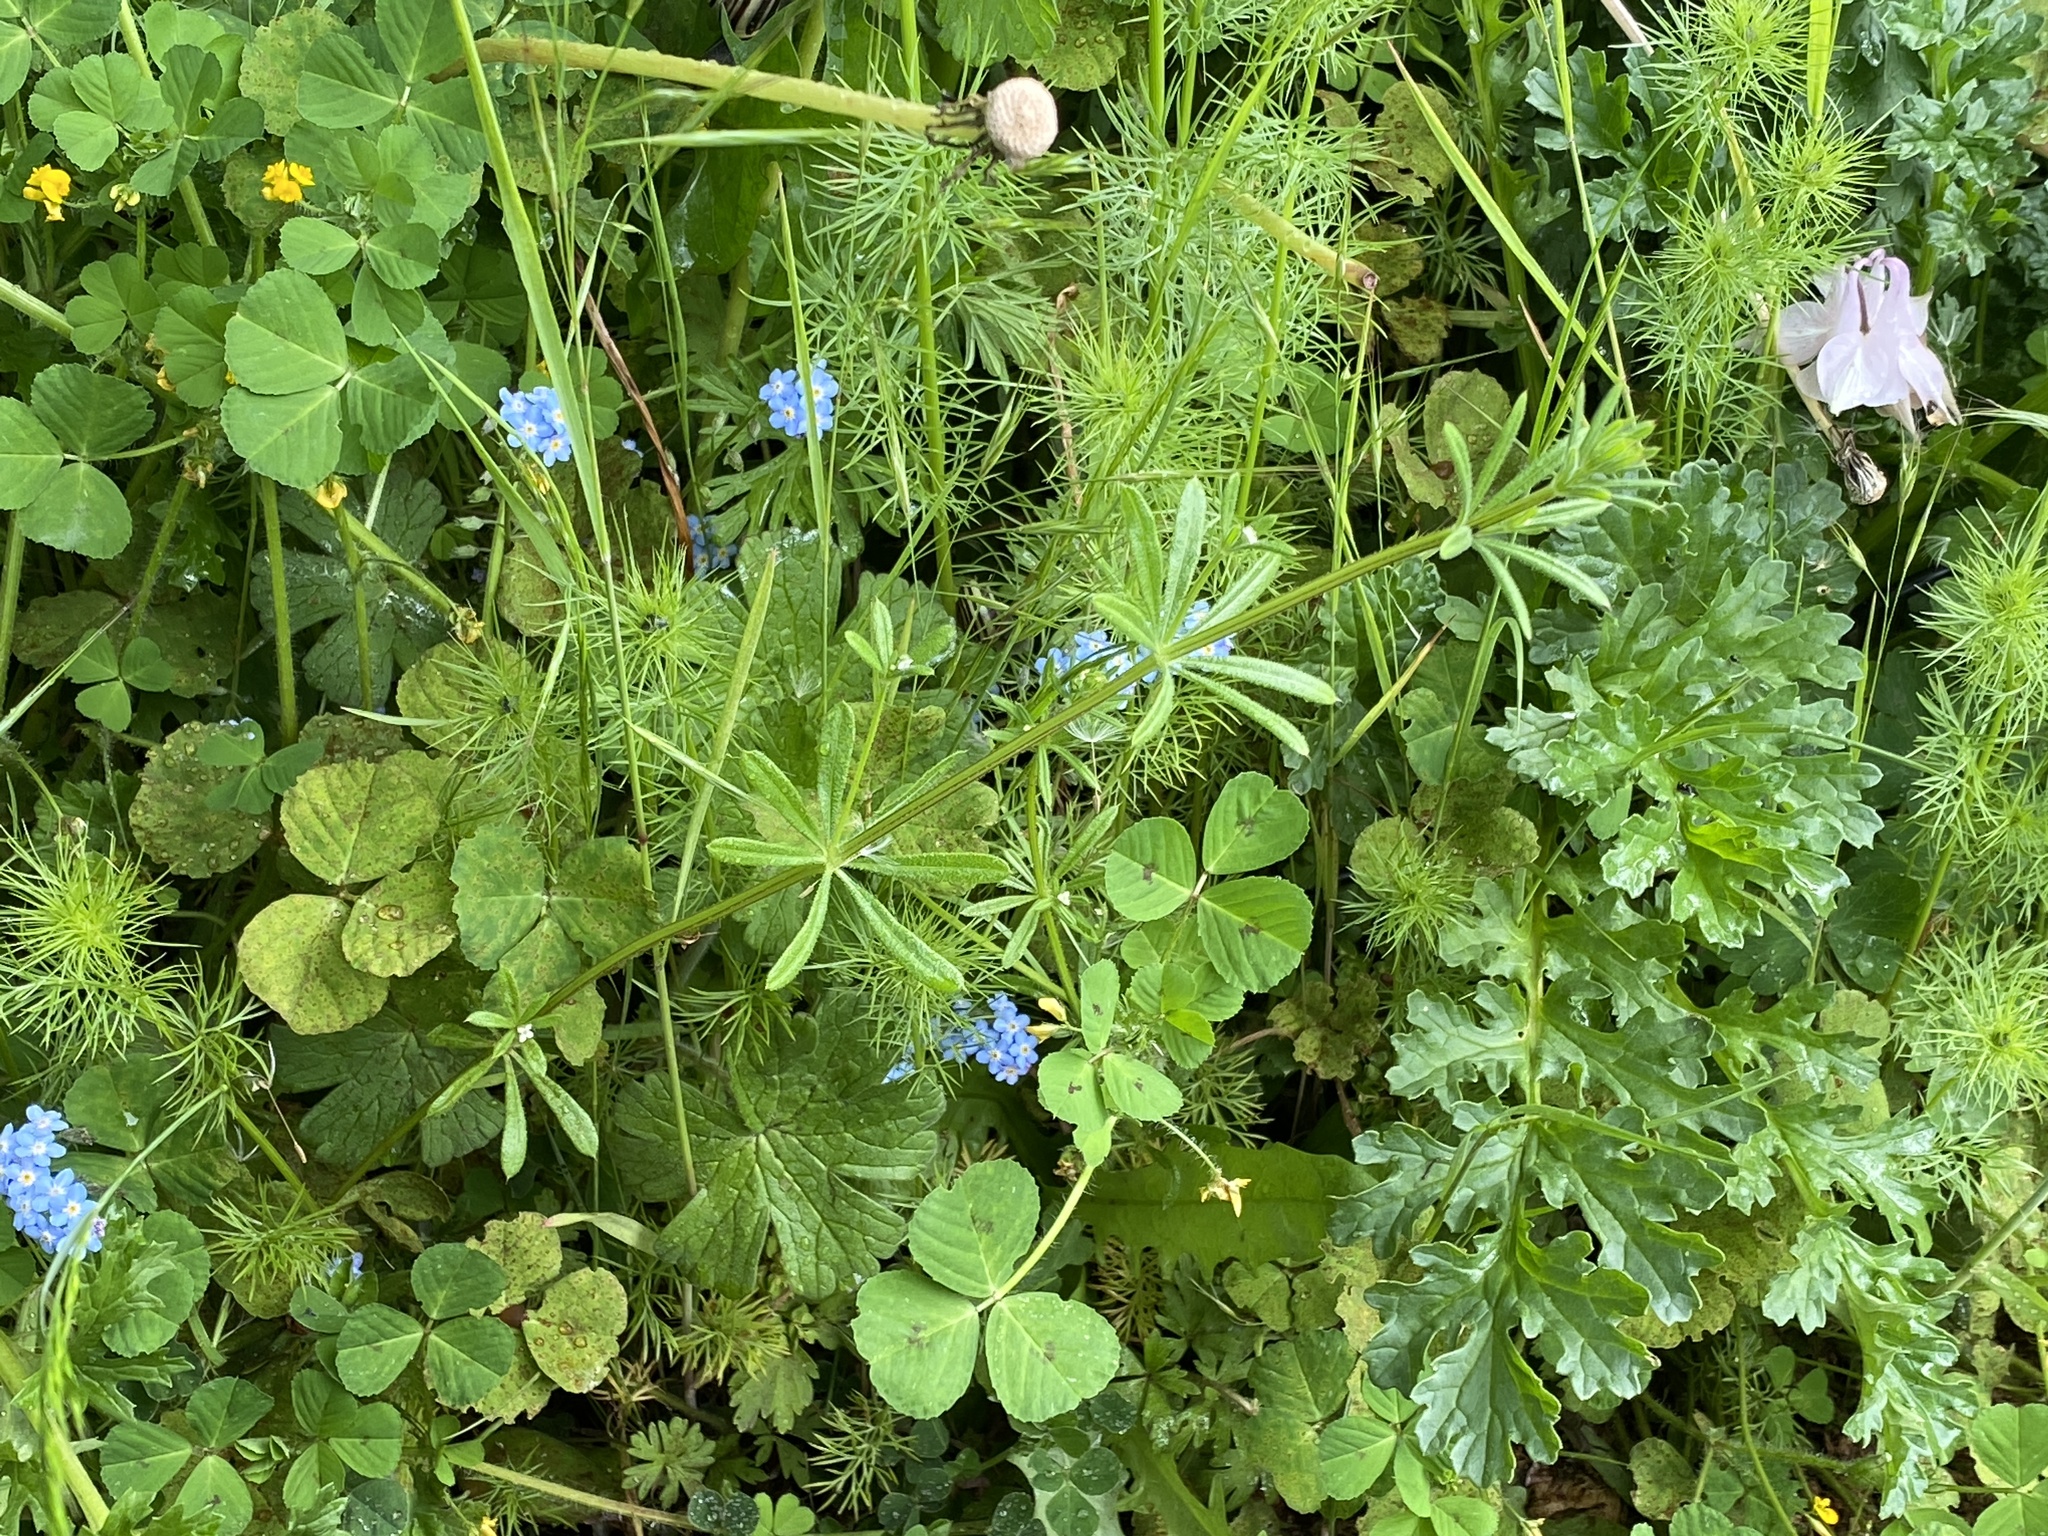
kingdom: Plantae
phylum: Tracheophyta
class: Magnoliopsida
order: Gentianales
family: Rubiaceae
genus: Galium
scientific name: Galium aparine
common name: Cleavers
